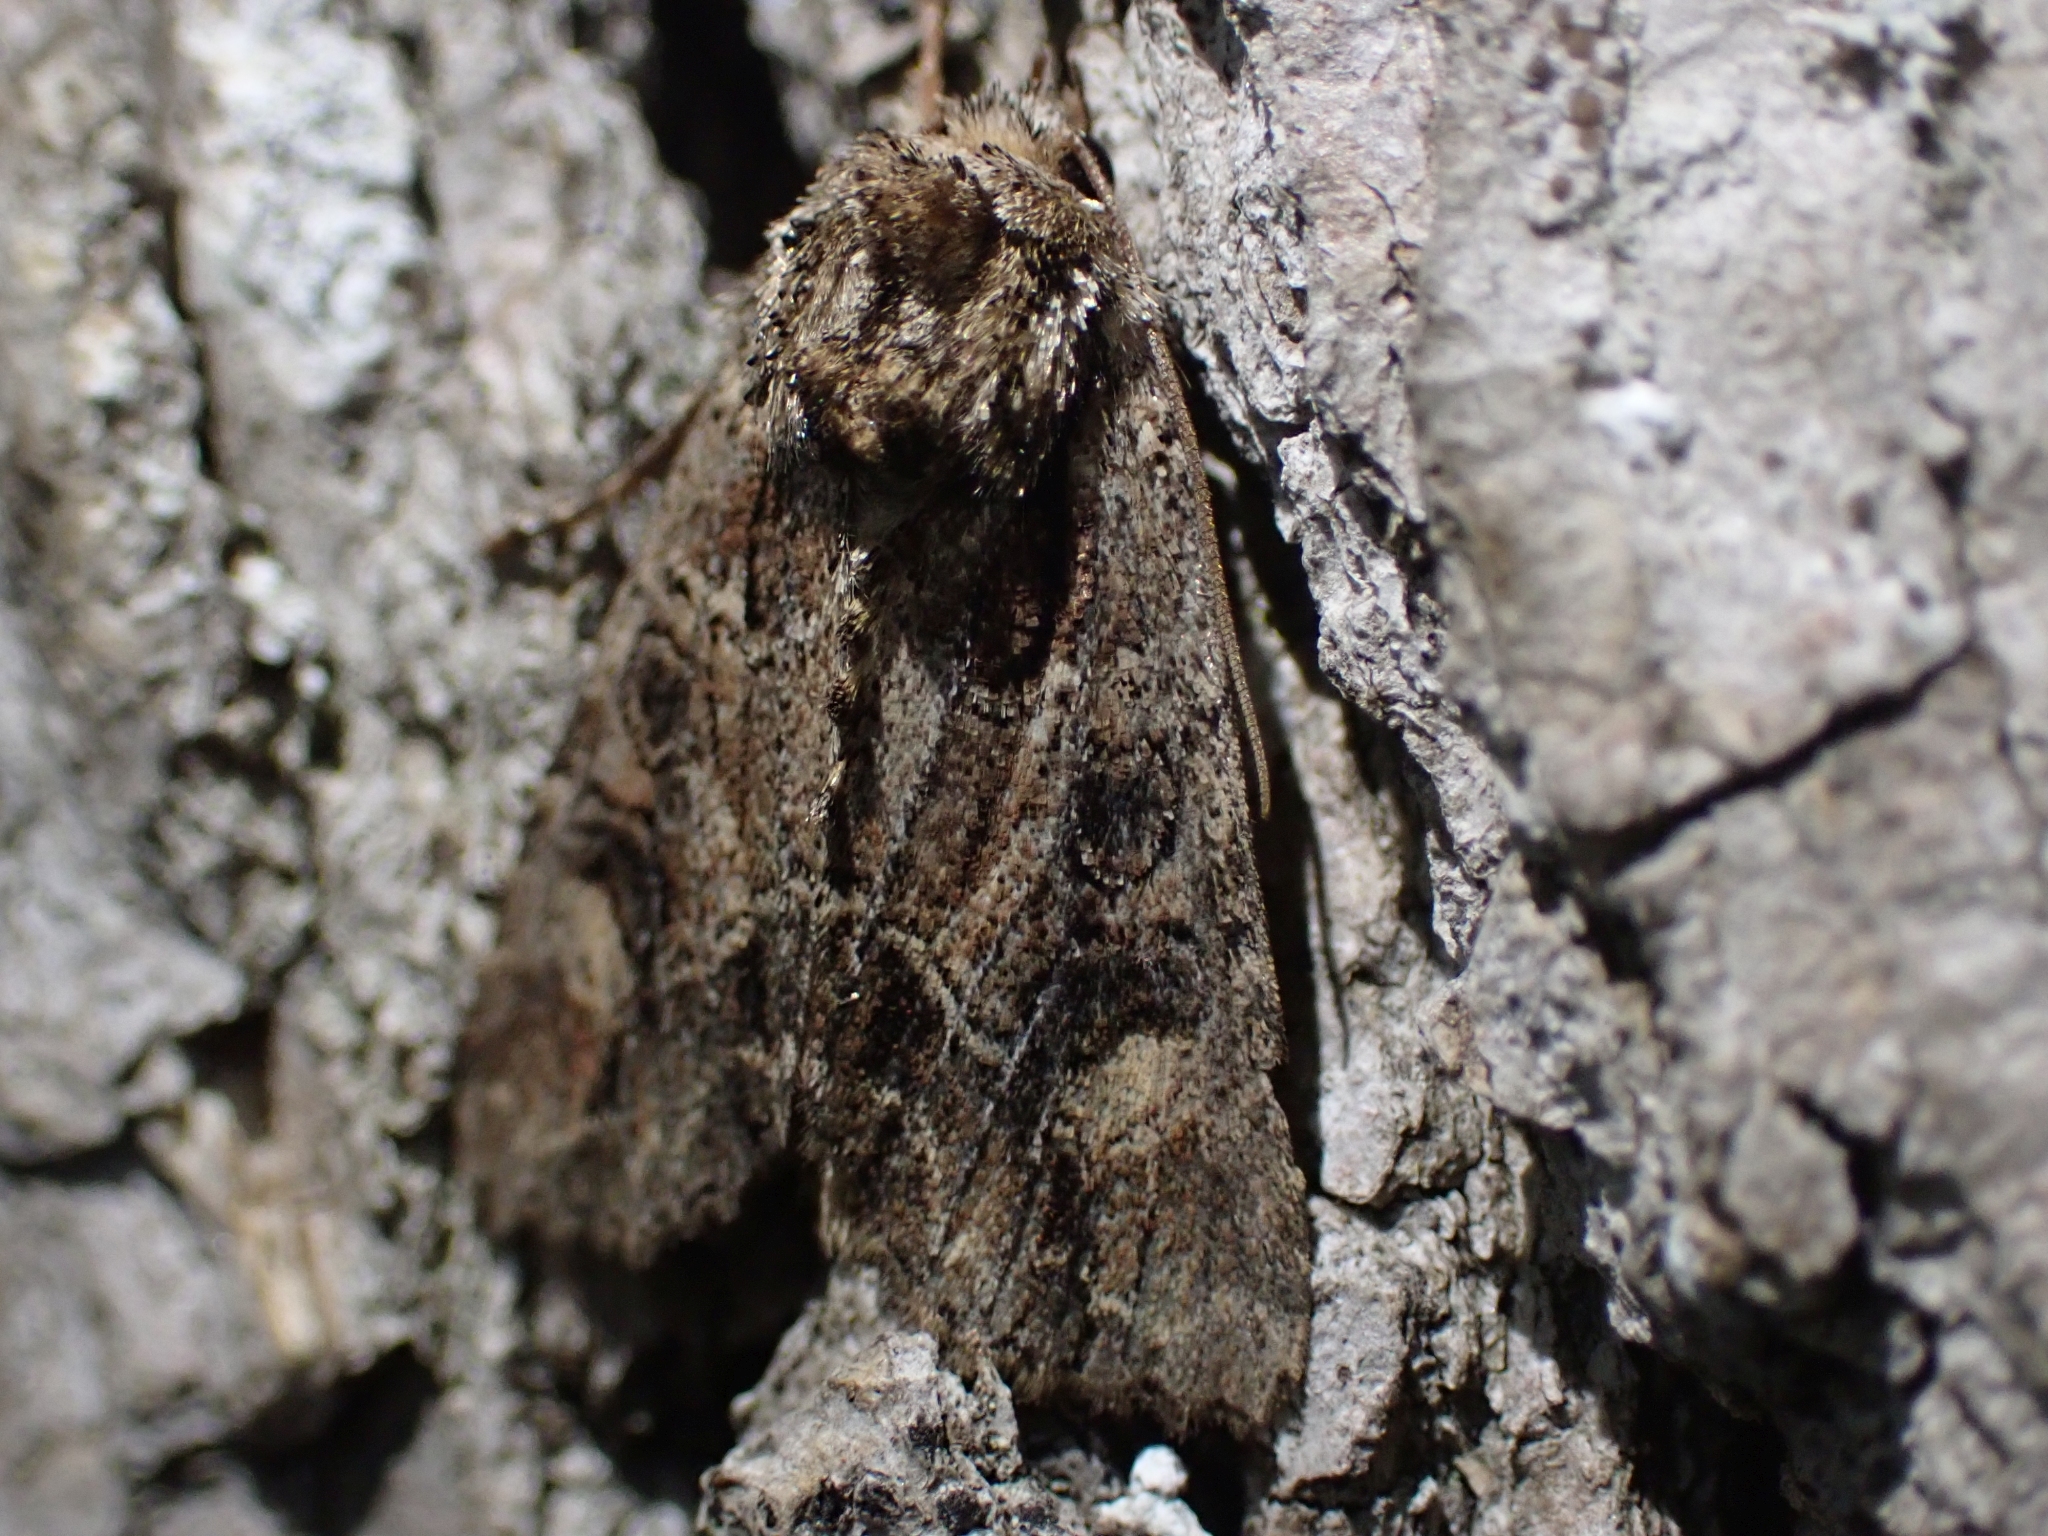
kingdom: Animalia
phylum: Arthropoda
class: Insecta
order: Lepidoptera
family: Noctuidae
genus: Aseptis
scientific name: Aseptis adnixa
